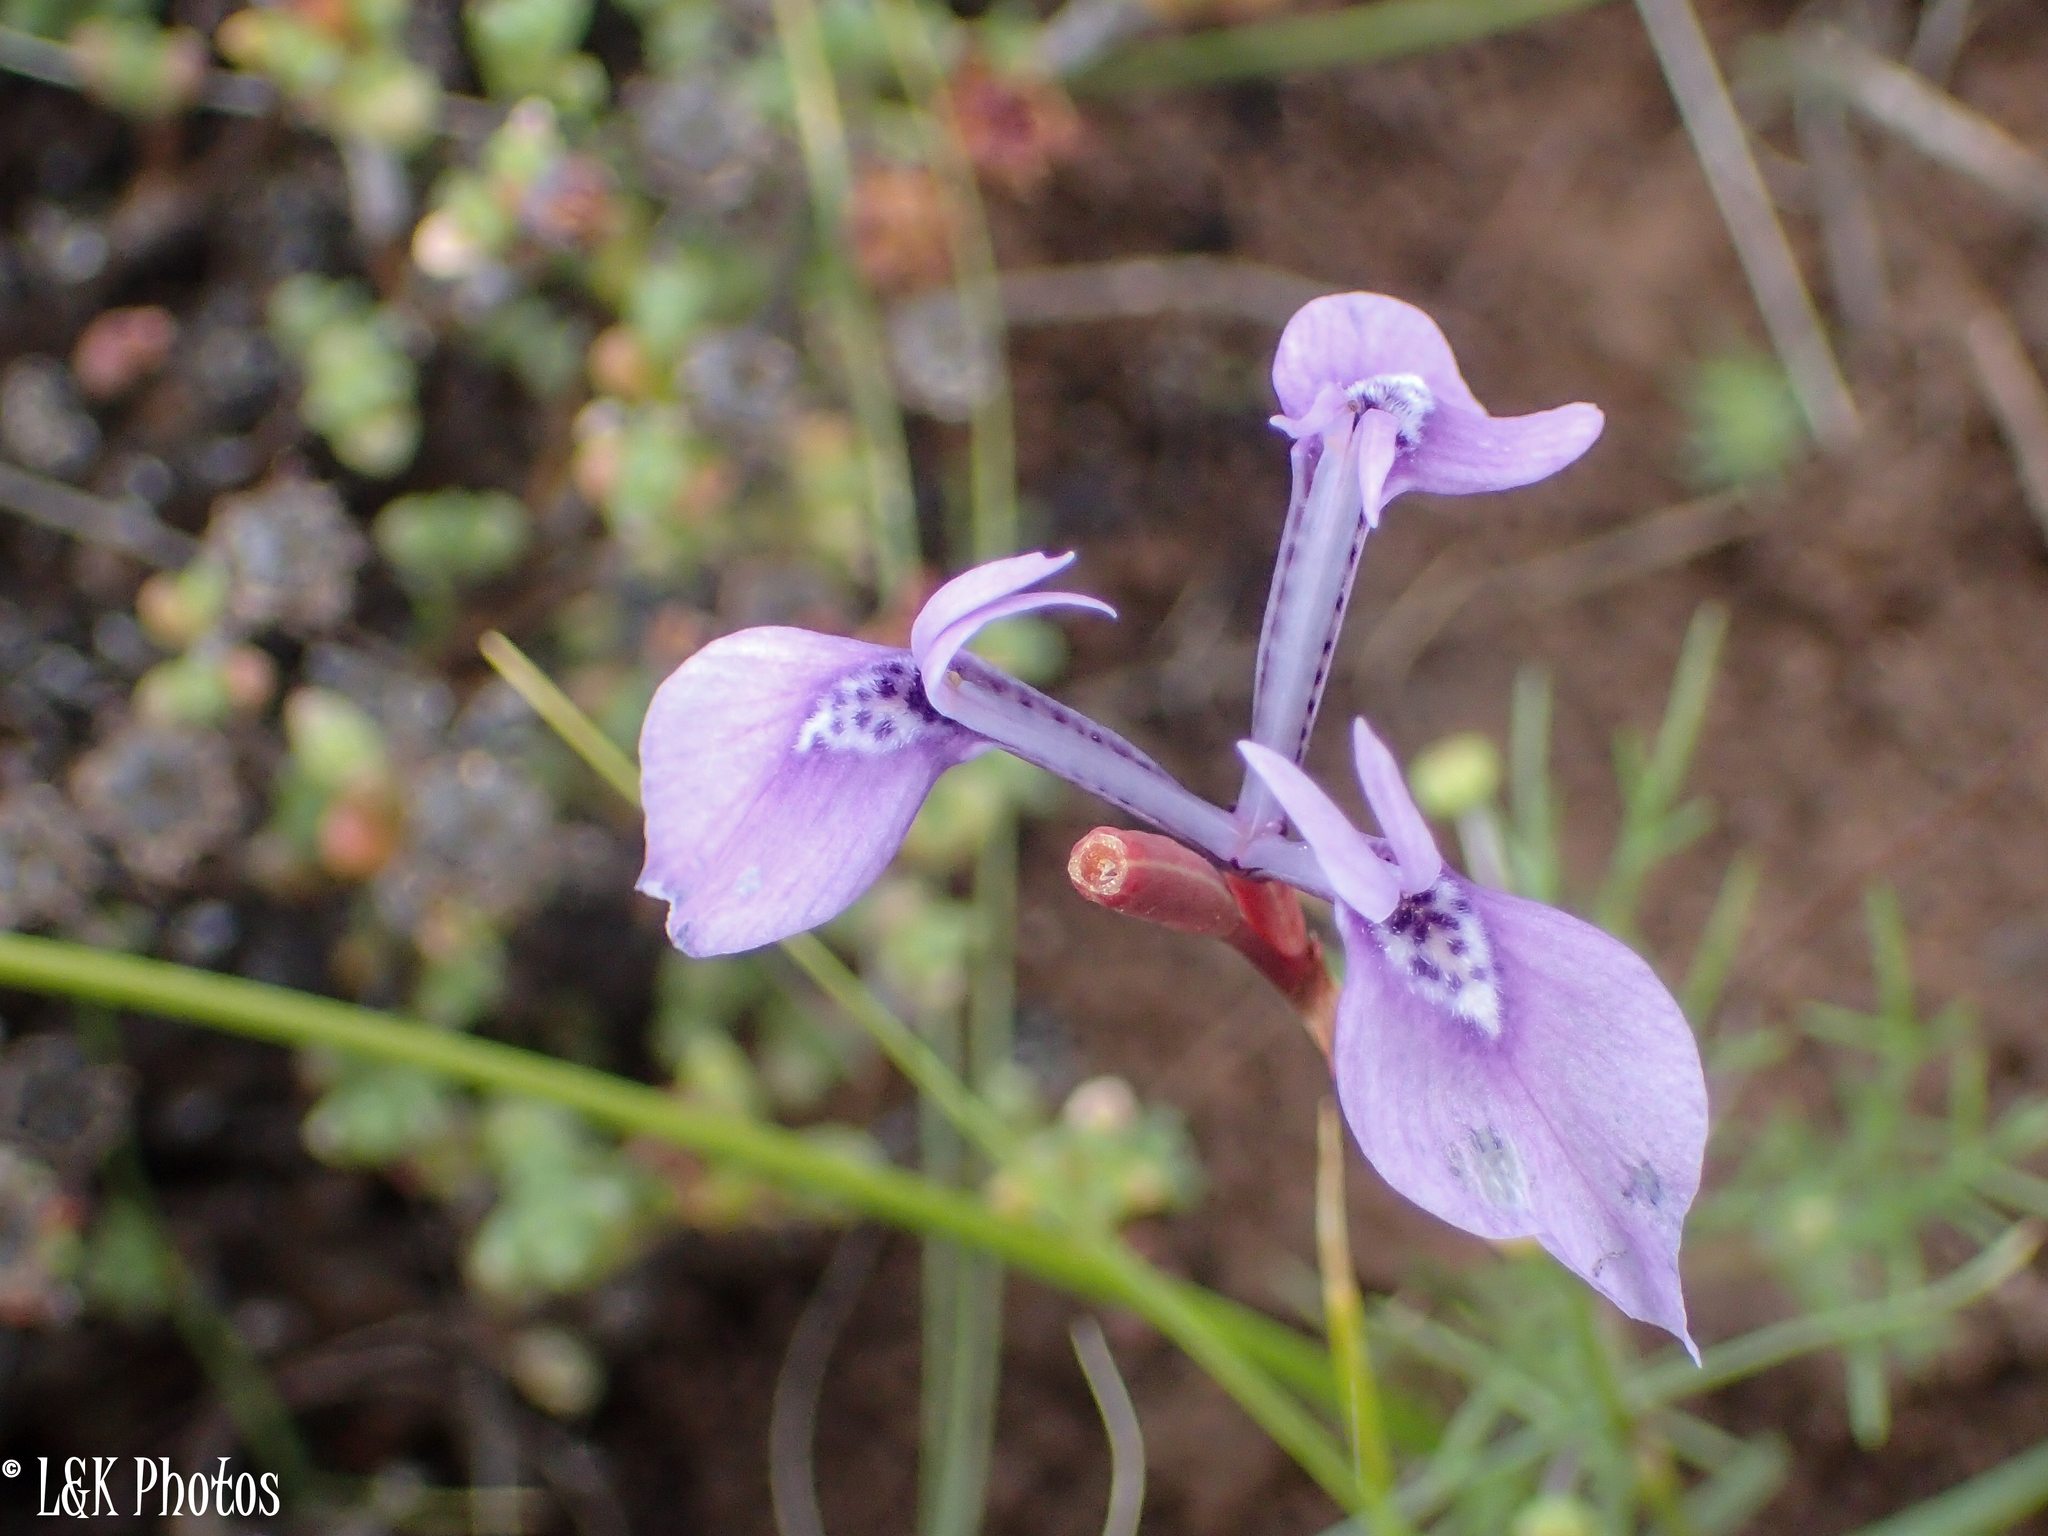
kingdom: Plantae
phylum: Tracheophyta
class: Liliopsida
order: Asparagales
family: Iridaceae
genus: Moraea
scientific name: Moraea tripetala
